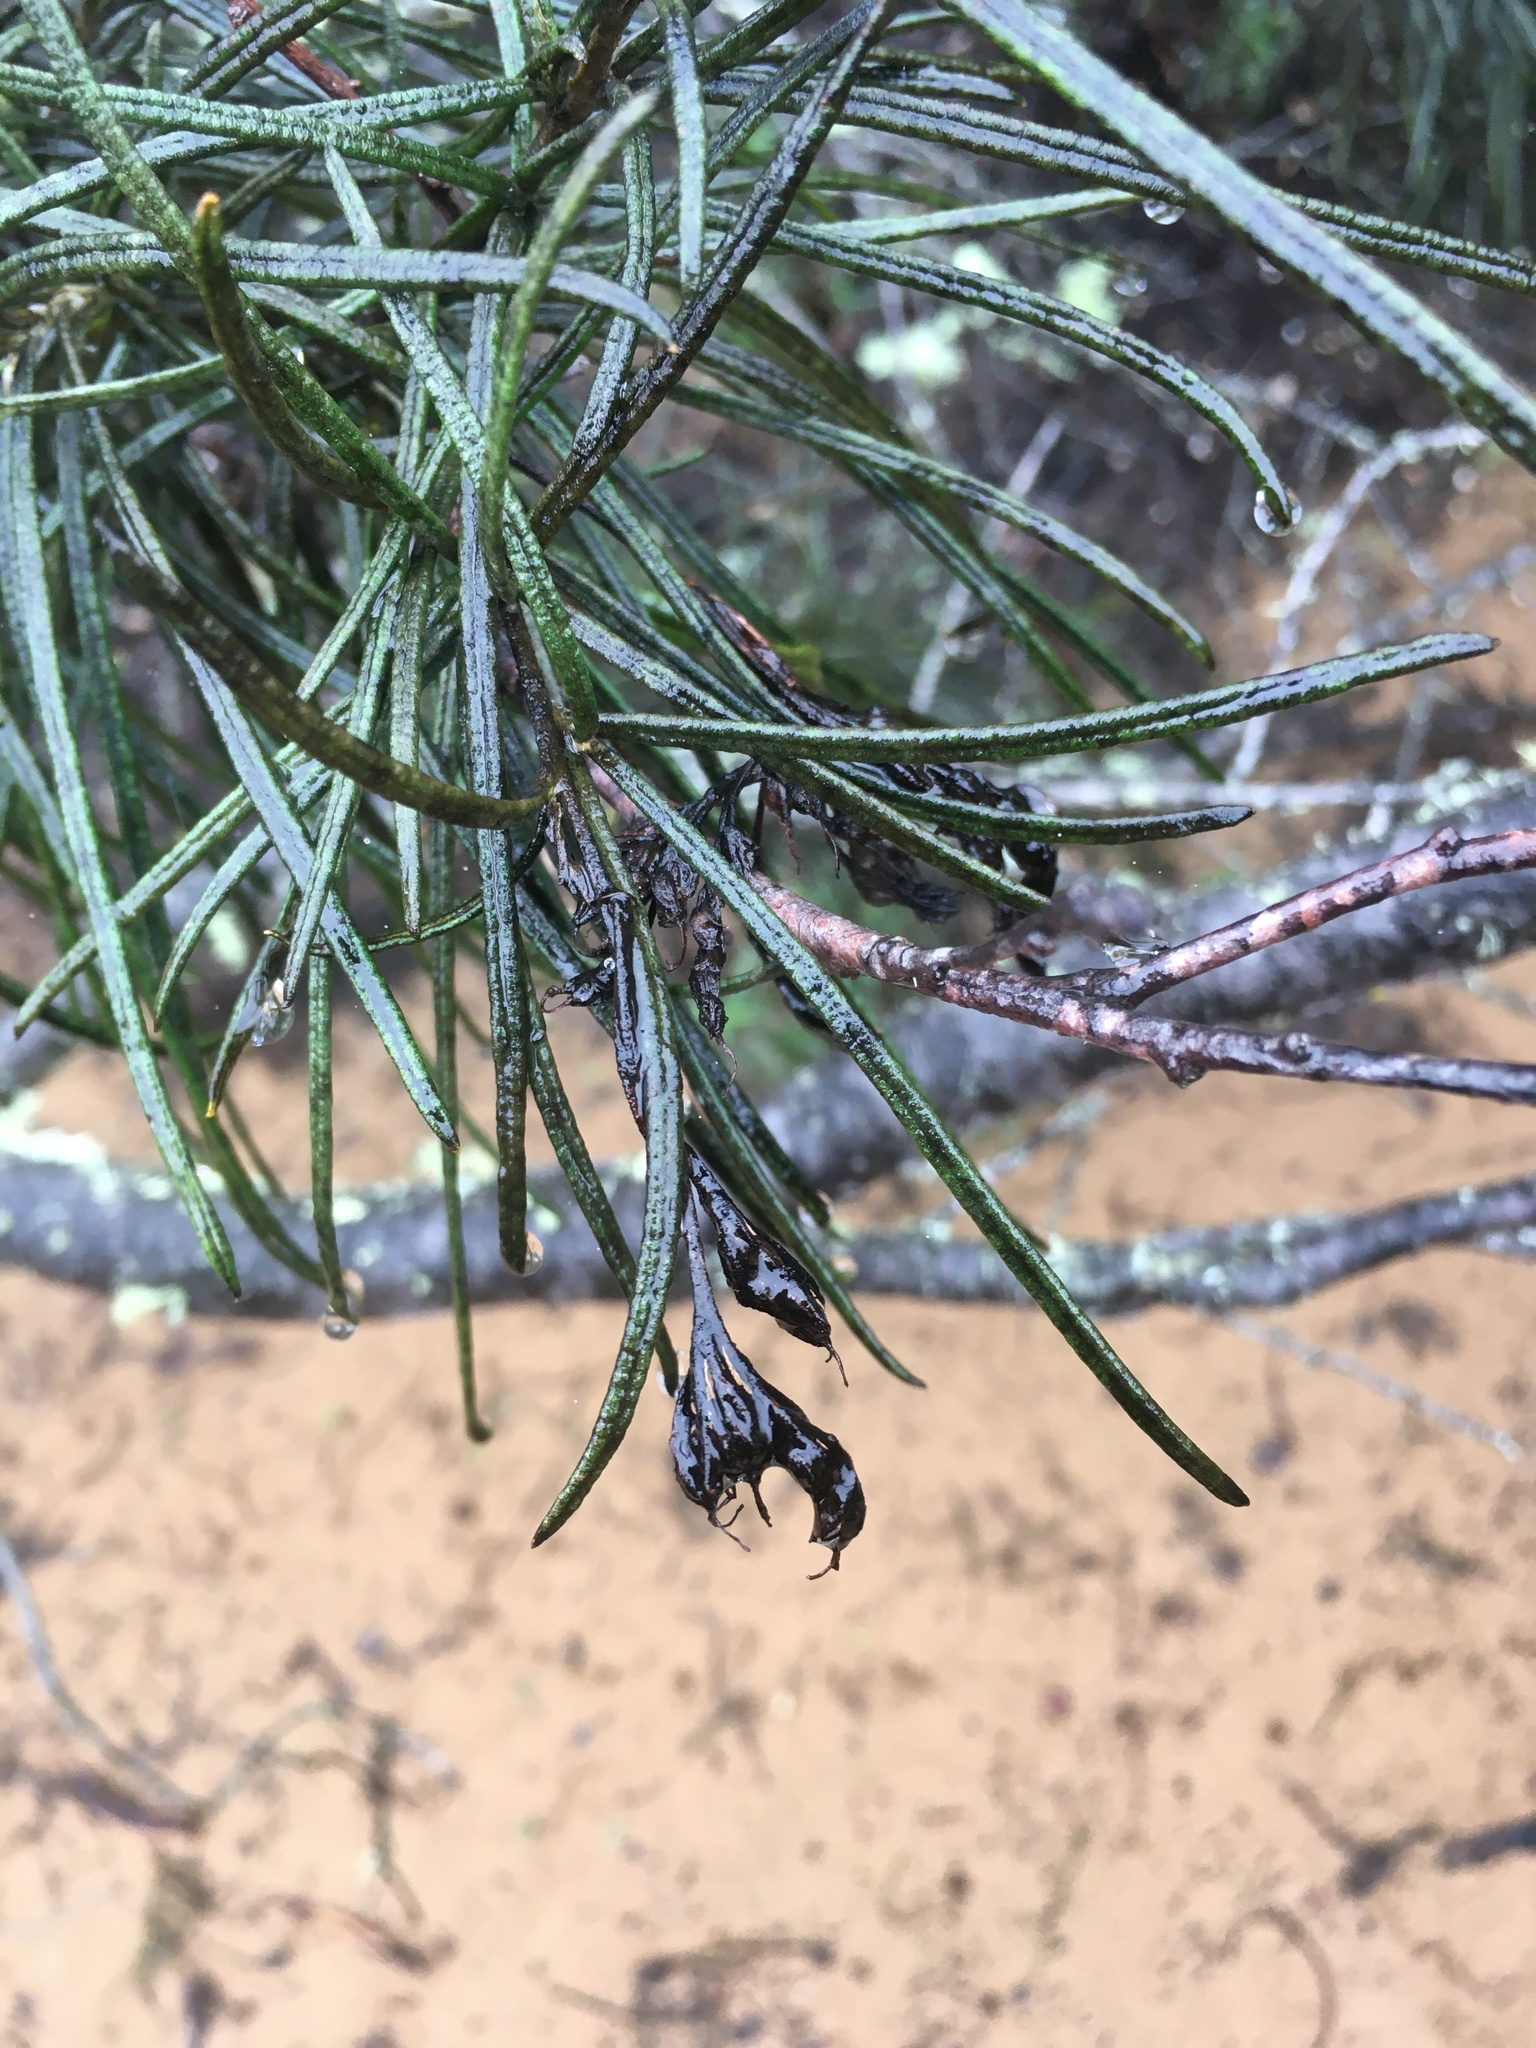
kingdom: Plantae
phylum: Tracheophyta
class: Magnoliopsida
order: Boraginales
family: Namaceae
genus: Eriodictyon
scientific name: Eriodictyon altissimum
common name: Indian knob mountain balm
